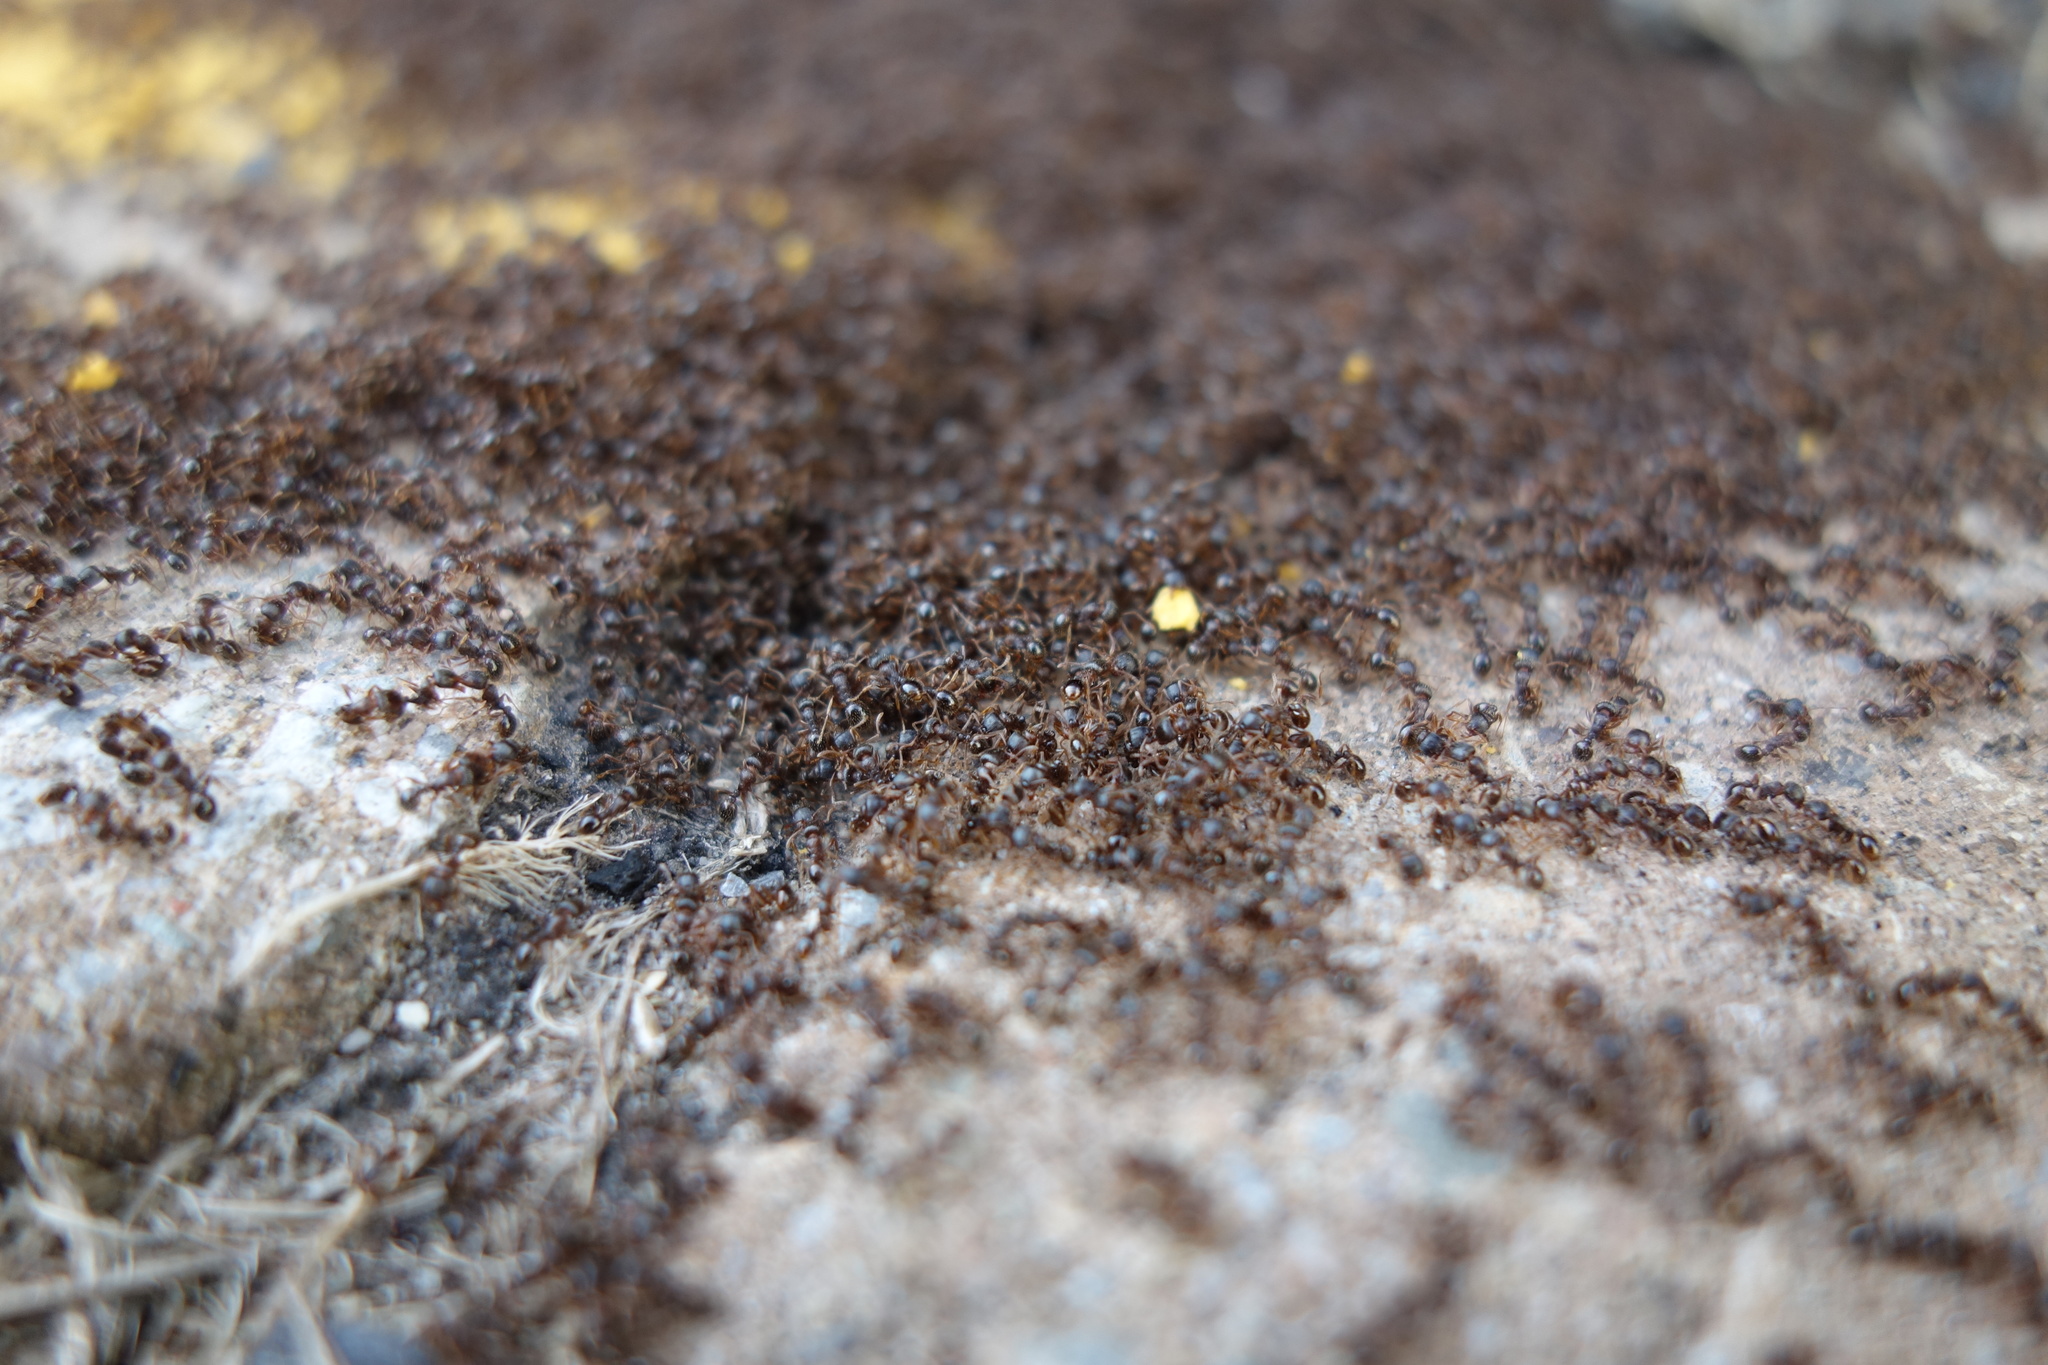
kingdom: Animalia
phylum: Arthropoda
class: Insecta
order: Hymenoptera
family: Formicidae
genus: Tetramorium
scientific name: Tetramorium immigrans
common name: Pavement ant
